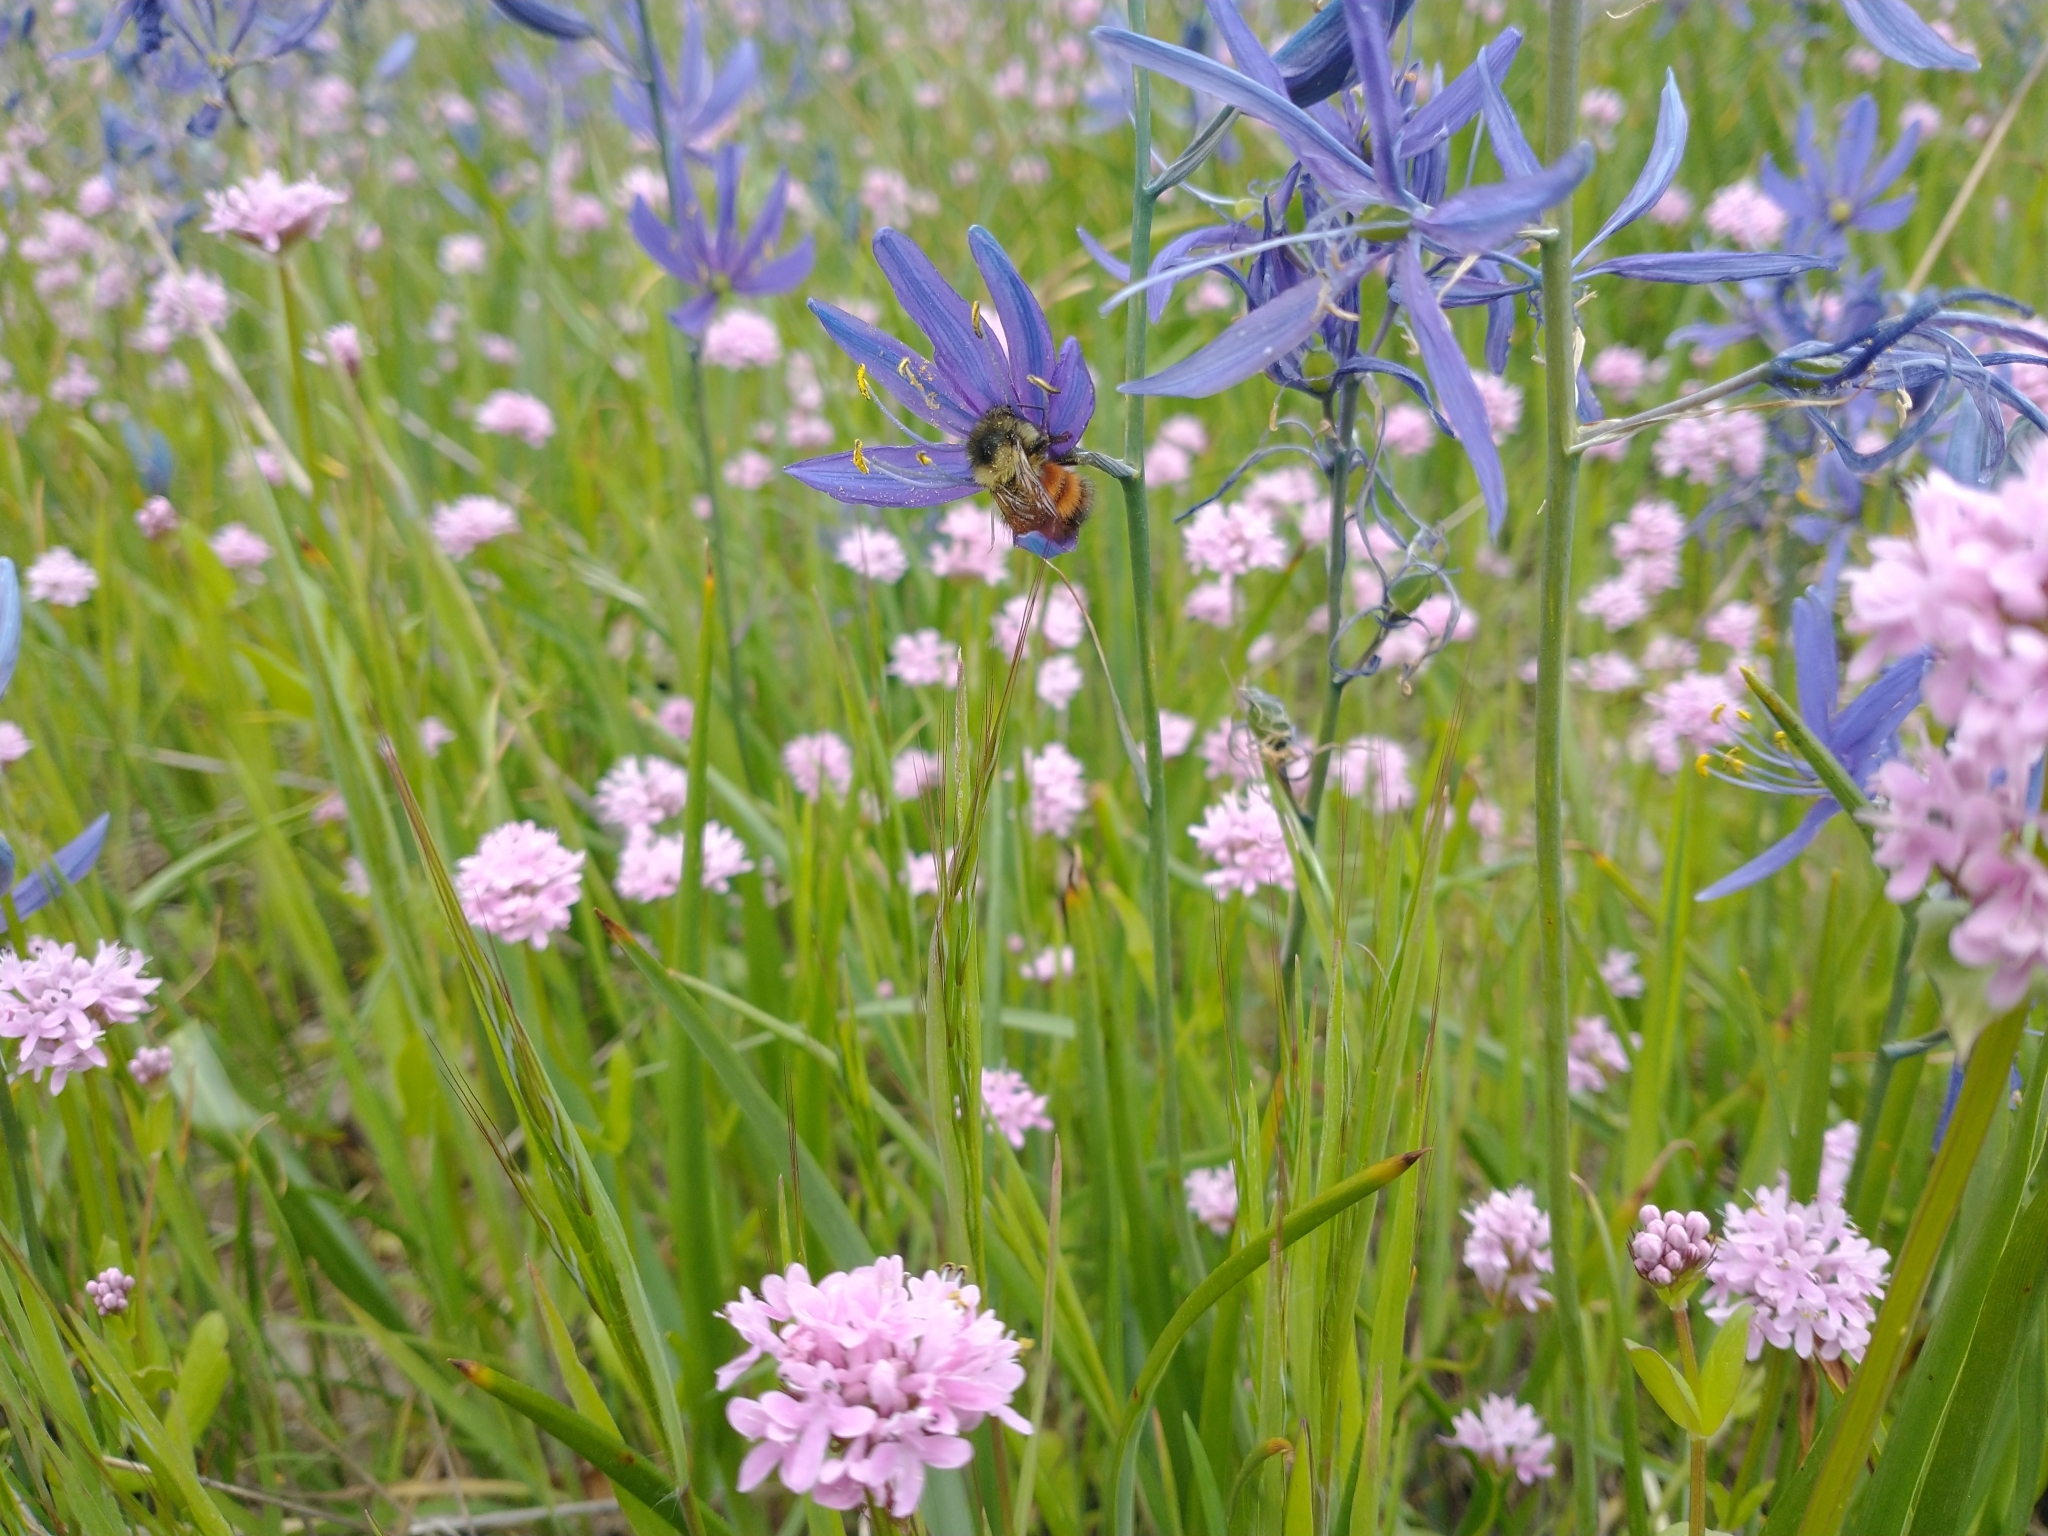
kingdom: Plantae
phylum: Tracheophyta
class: Magnoliopsida
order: Dipsacales
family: Caprifoliaceae
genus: Plectritis
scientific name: Plectritis congesta
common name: Pink plectritis
